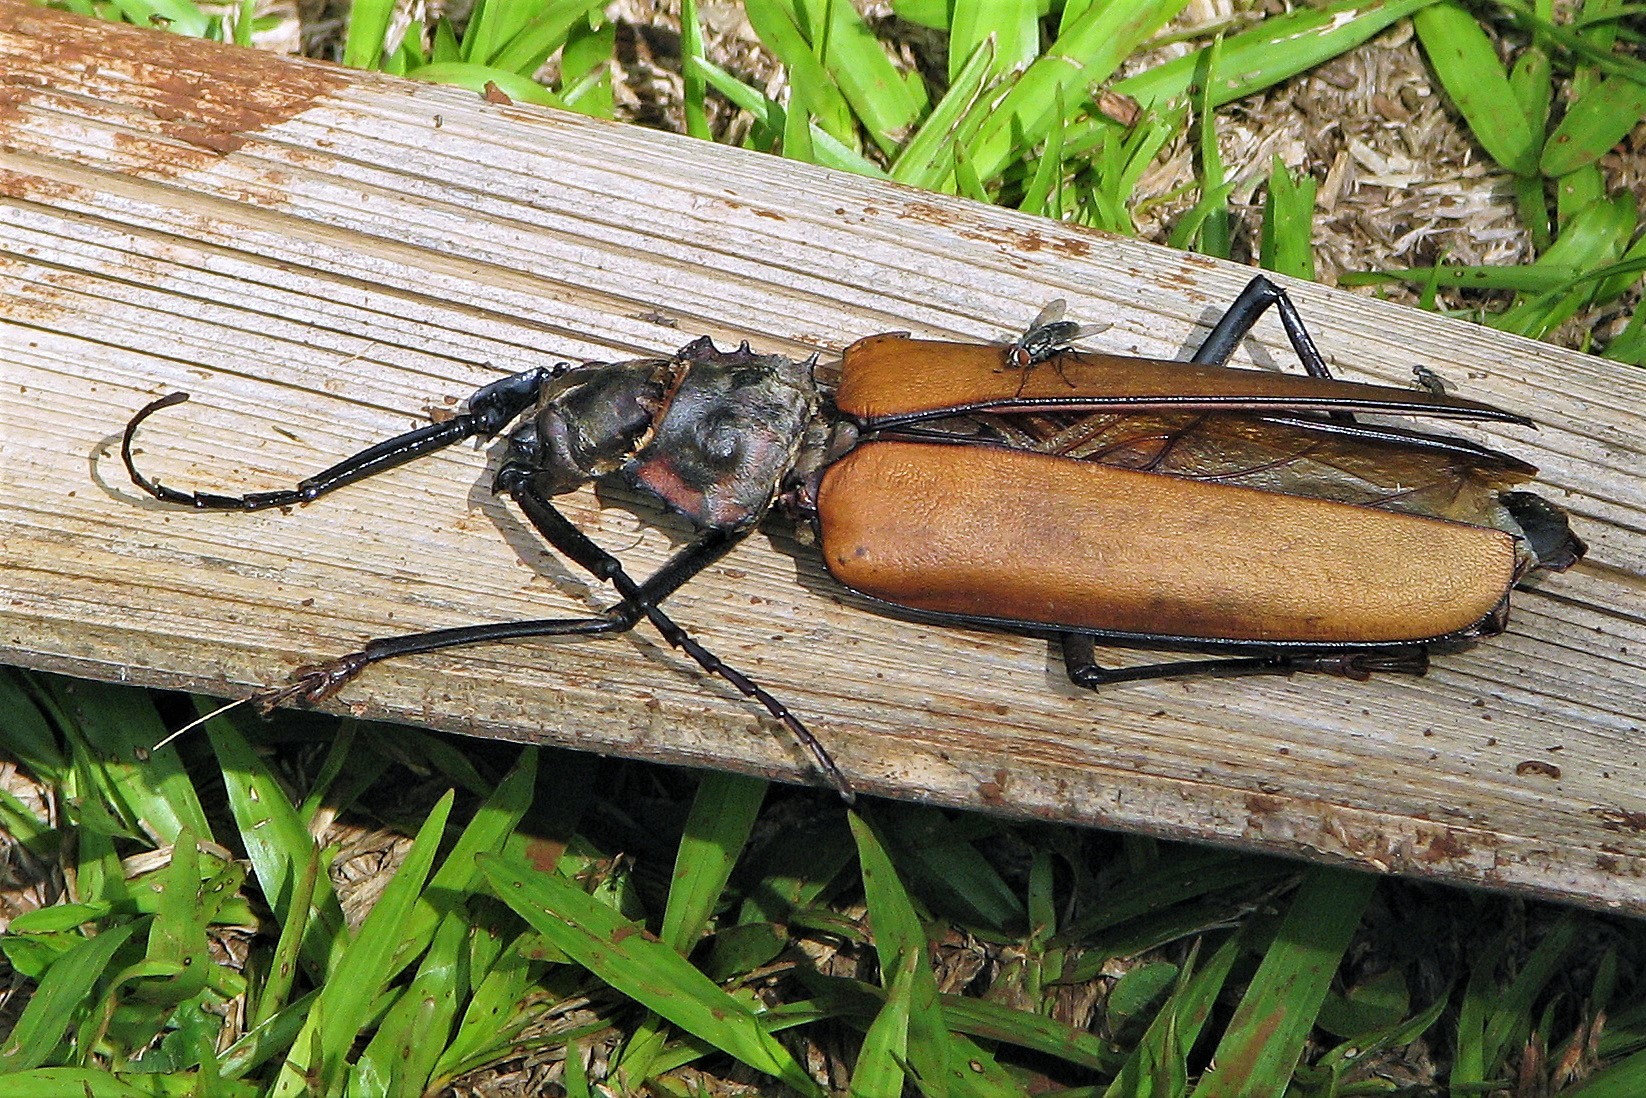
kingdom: Animalia
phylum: Arthropoda
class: Insecta
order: Coleoptera
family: Cerambycidae
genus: Enoplocerus
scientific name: Enoplocerus armillatus
